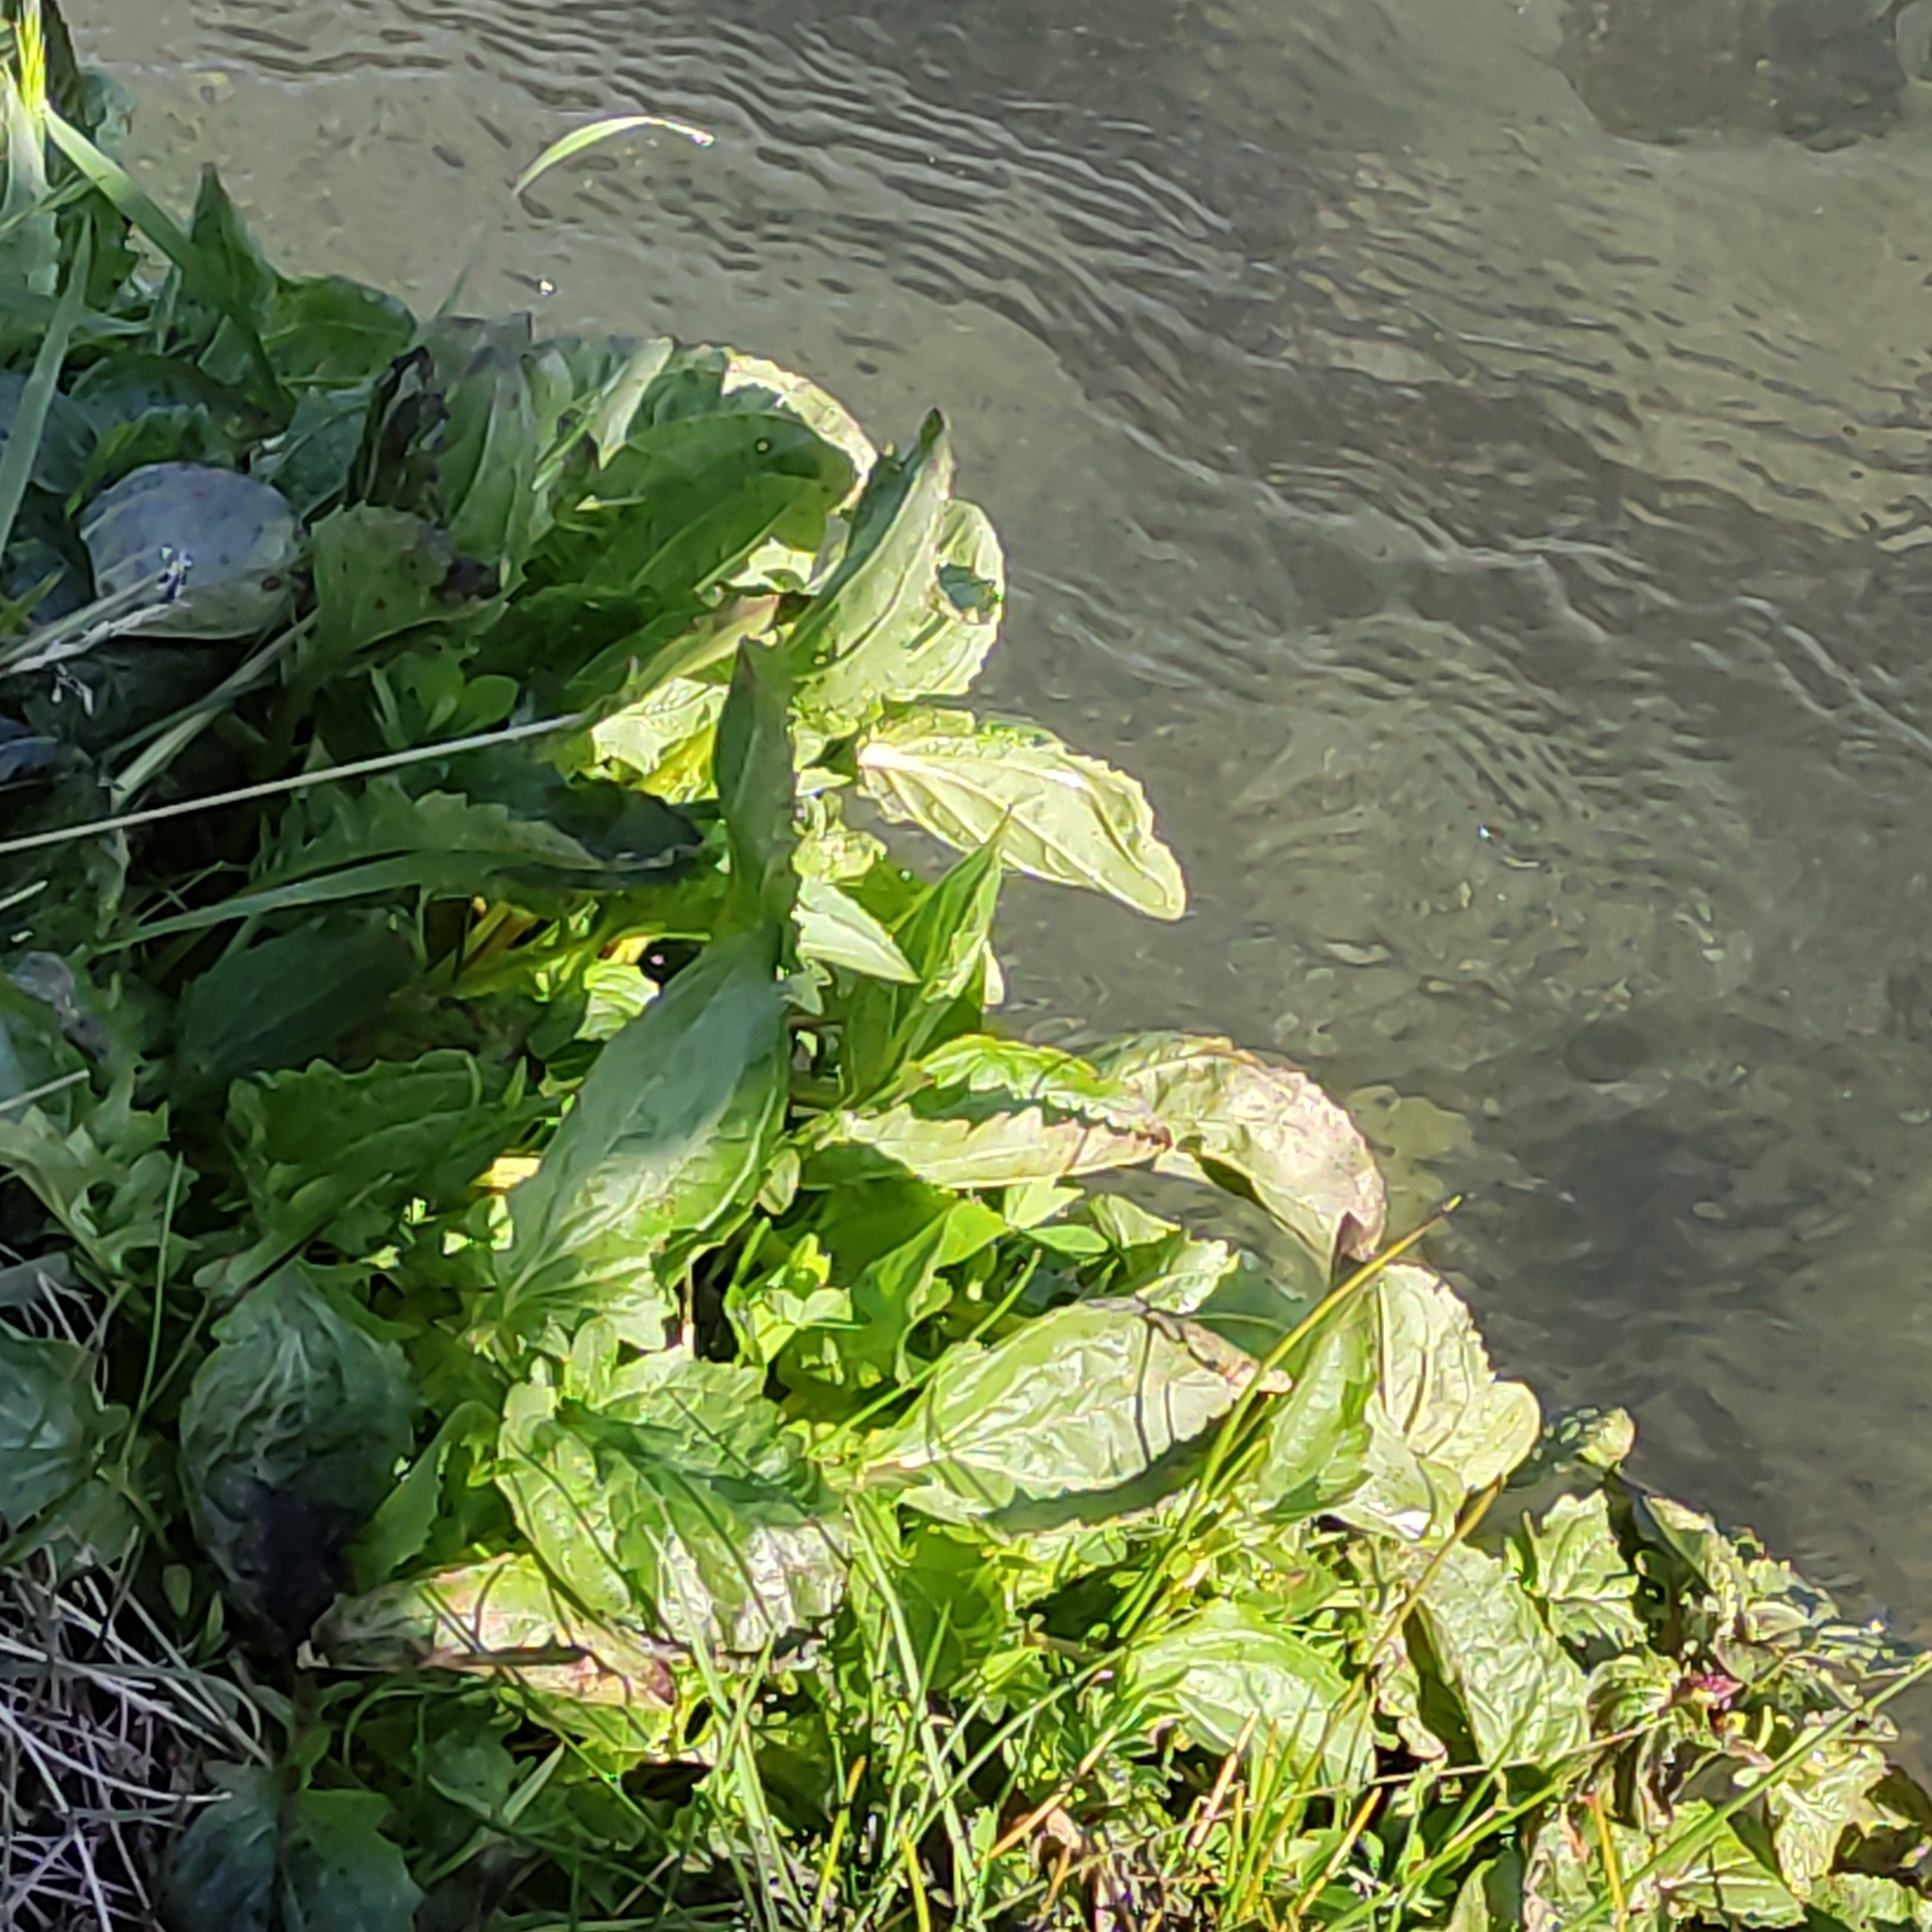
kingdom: Plantae
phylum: Tracheophyta
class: Magnoliopsida
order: Lamiales
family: Phrymaceae
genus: Erythranthe
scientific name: Erythranthe guttata
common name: Monkeyflower
